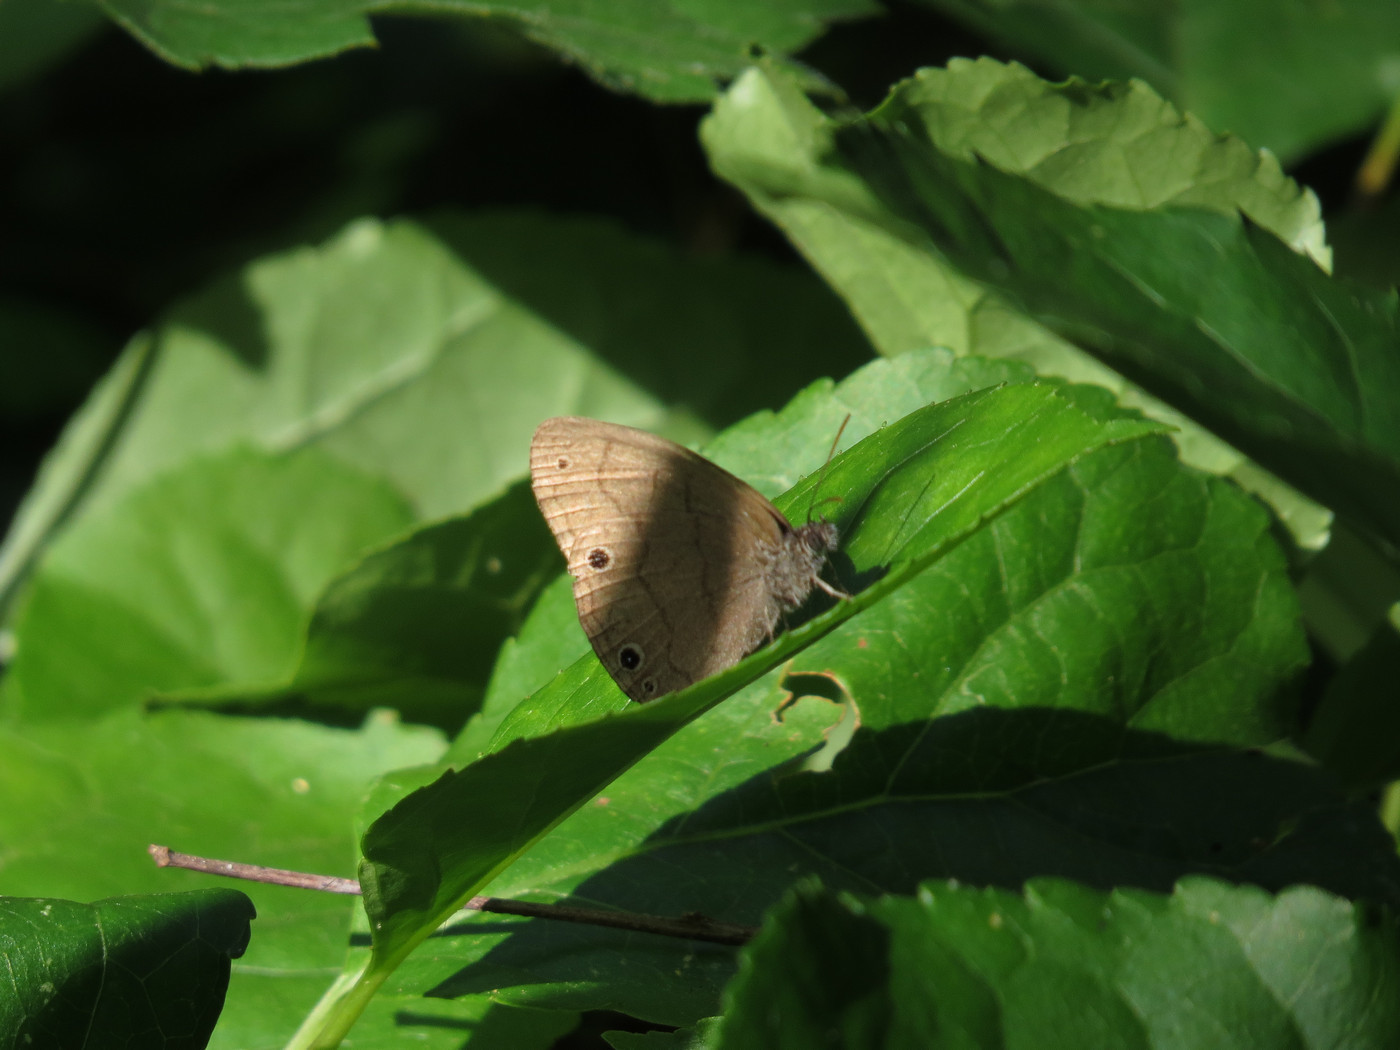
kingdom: Animalia
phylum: Arthropoda
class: Insecta
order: Lepidoptera
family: Nymphalidae
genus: Hermeuptychia
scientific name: Hermeuptychia hermes
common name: Hermes satyr
